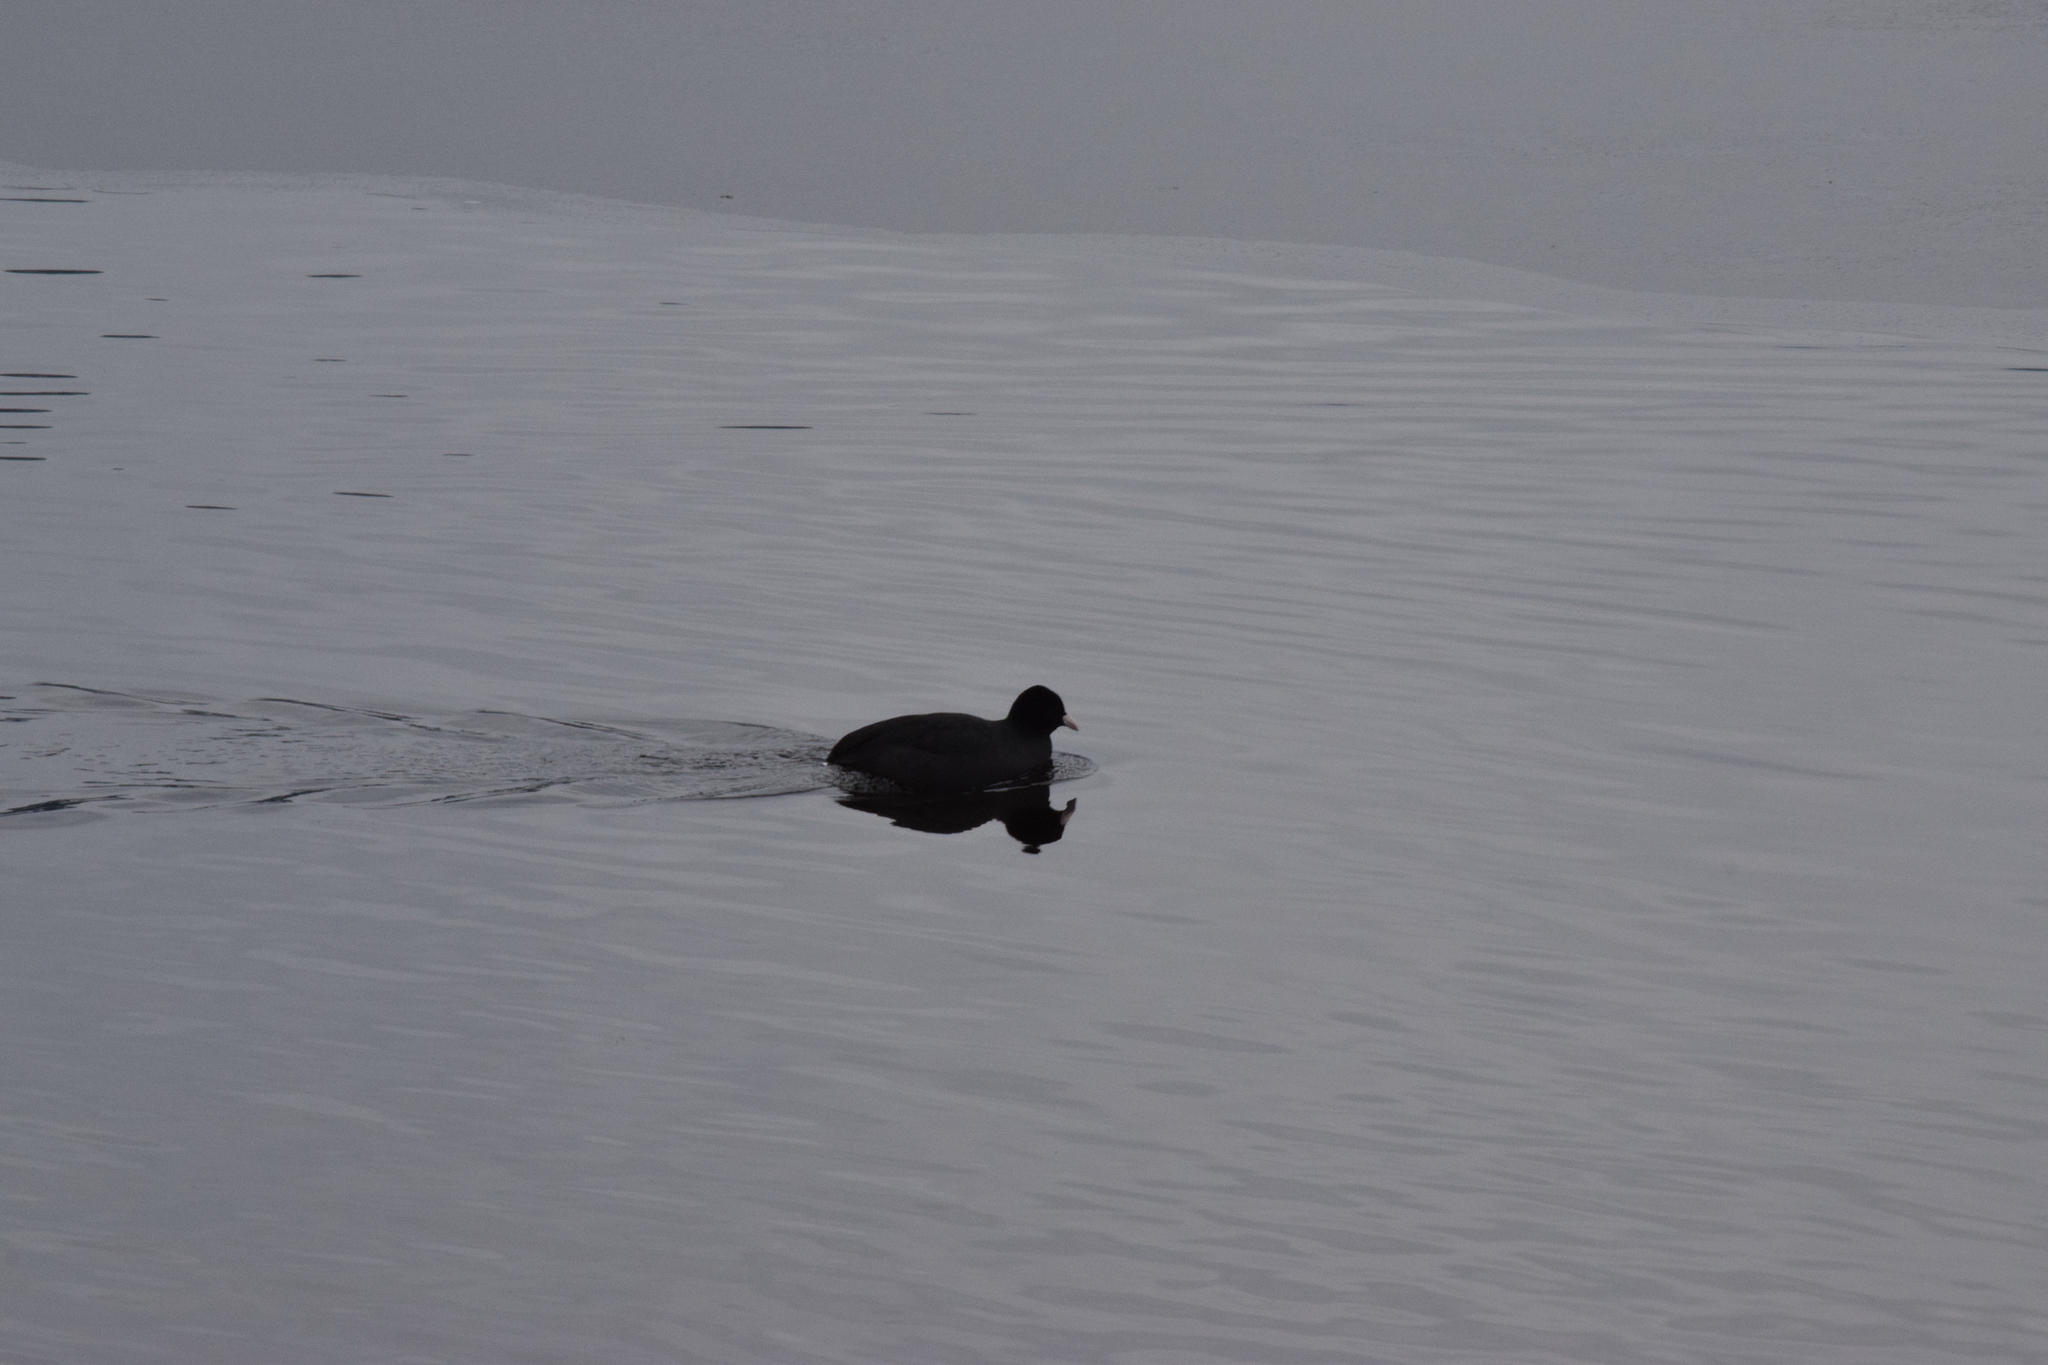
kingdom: Animalia
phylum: Chordata
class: Aves
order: Gruiformes
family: Rallidae
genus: Fulica
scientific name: Fulica atra
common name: Eurasian coot
